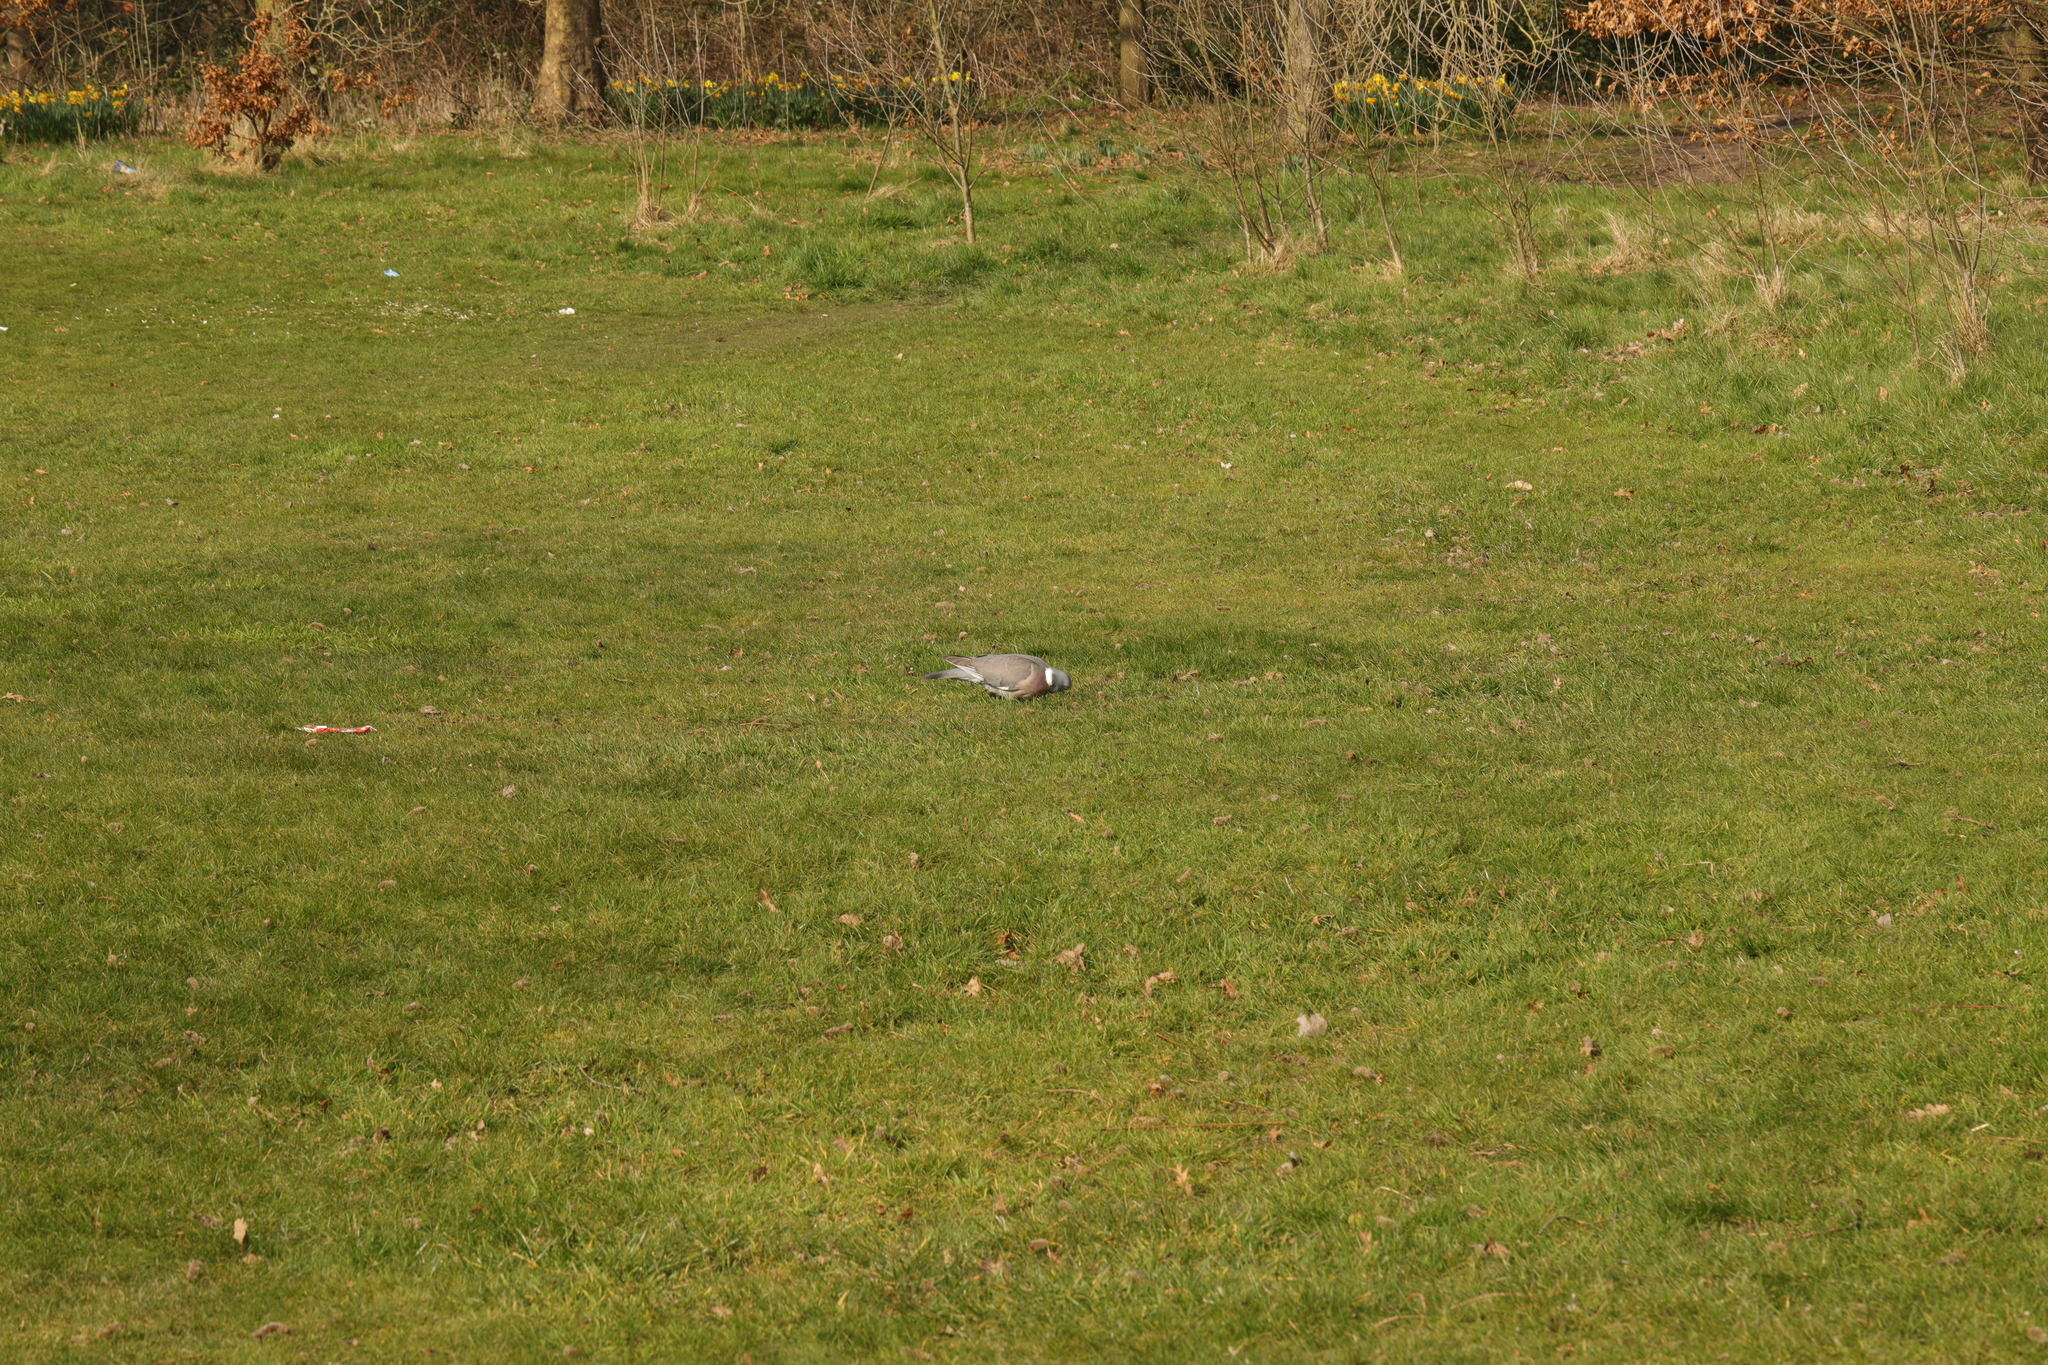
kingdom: Animalia
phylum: Chordata
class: Aves
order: Columbiformes
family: Columbidae
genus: Columba
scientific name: Columba palumbus
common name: Common wood pigeon
